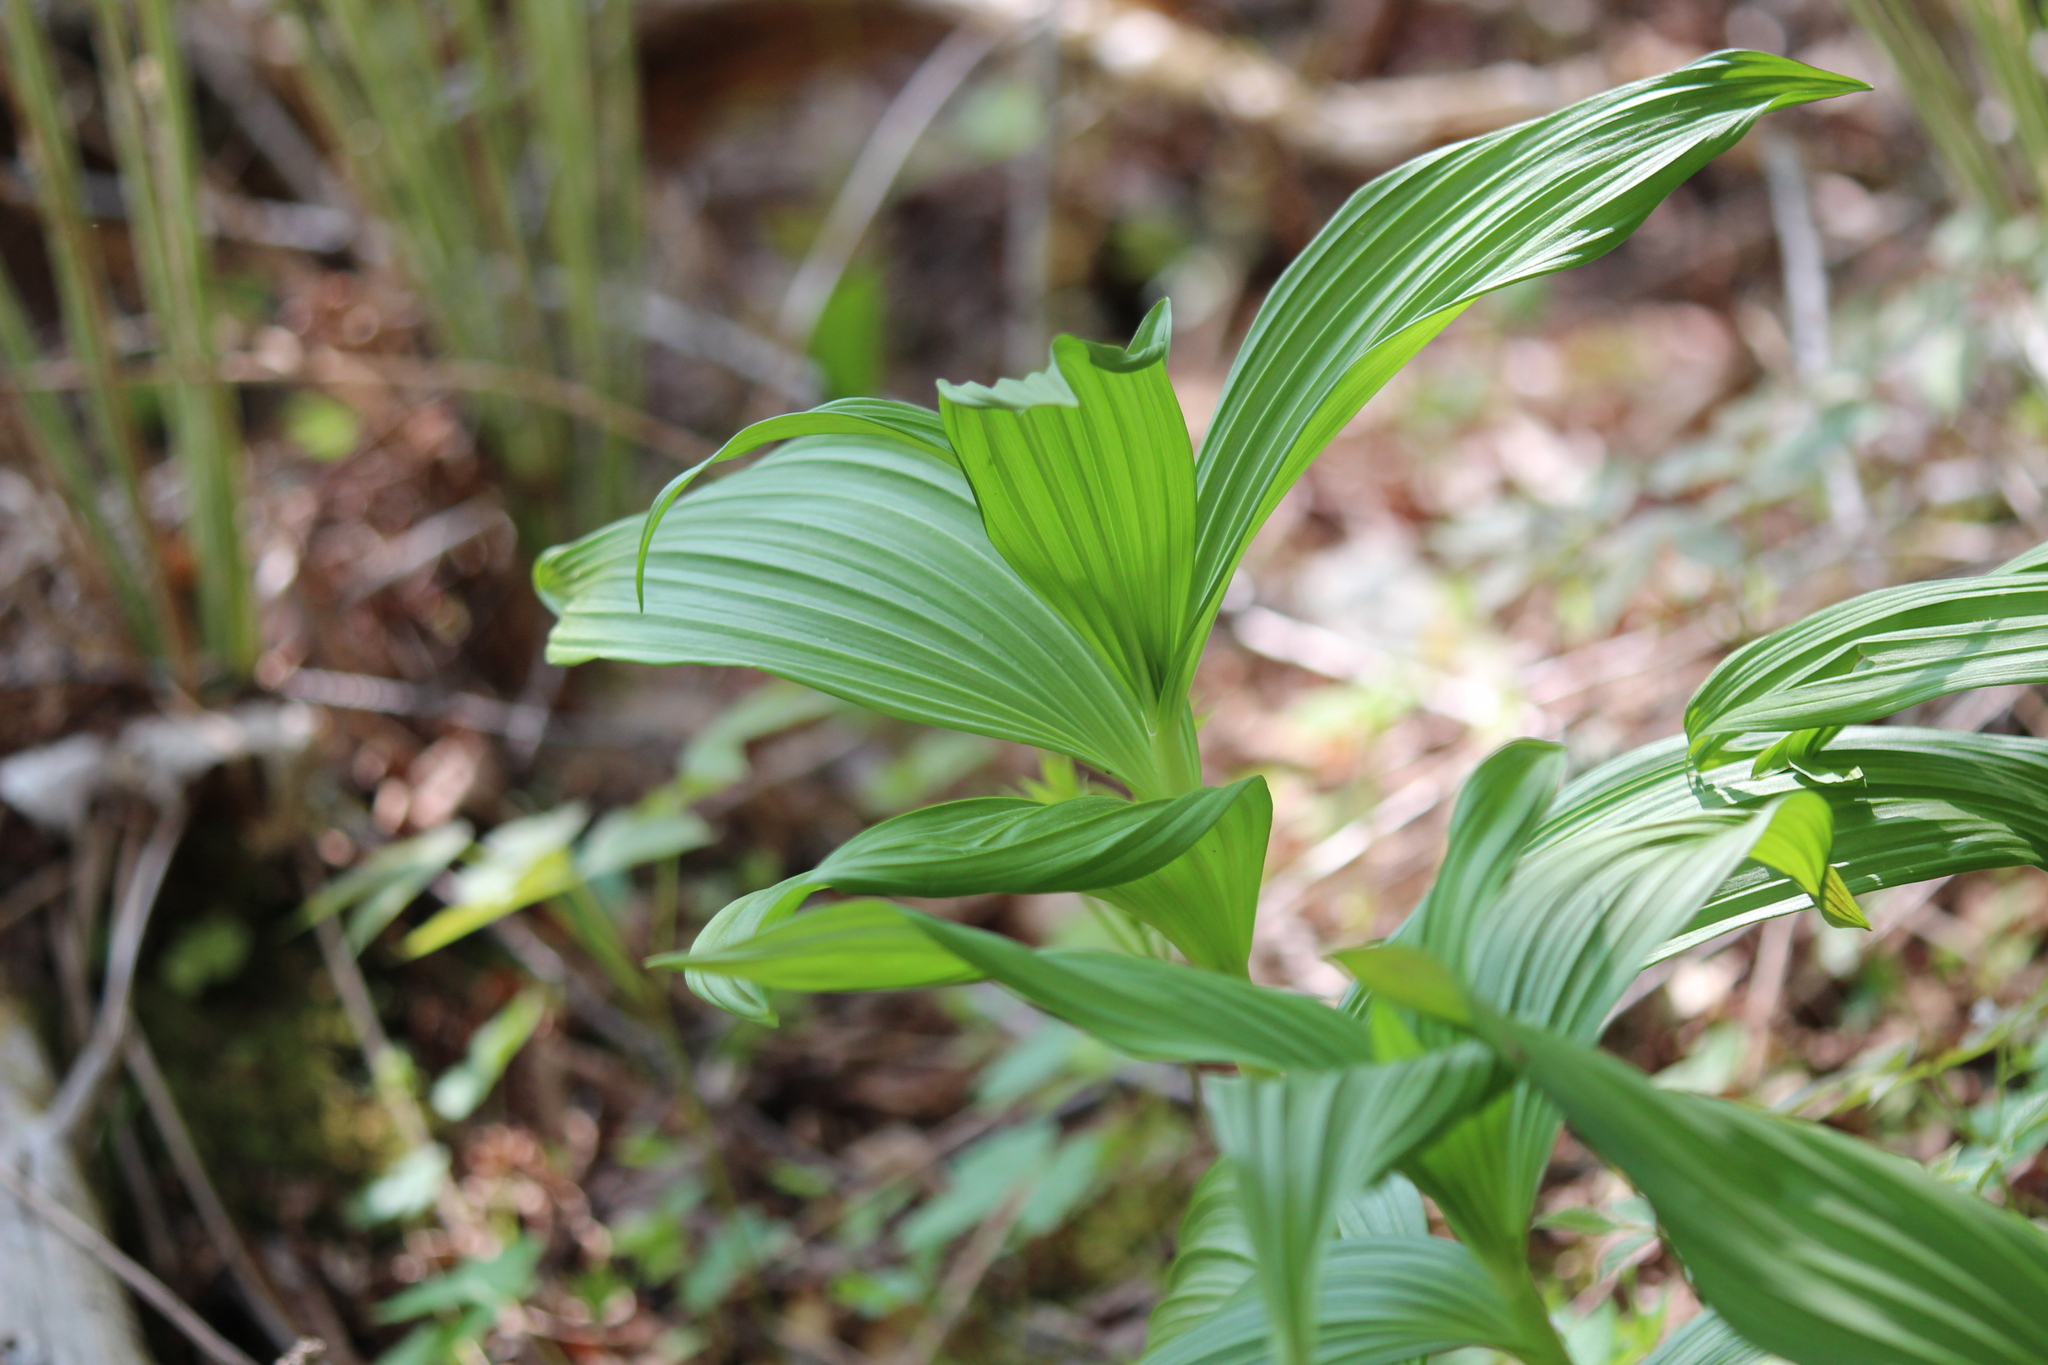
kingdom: Plantae
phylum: Tracheophyta
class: Liliopsida
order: Liliales
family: Melanthiaceae
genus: Veratrum
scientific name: Veratrum viride
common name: American false hellebore
